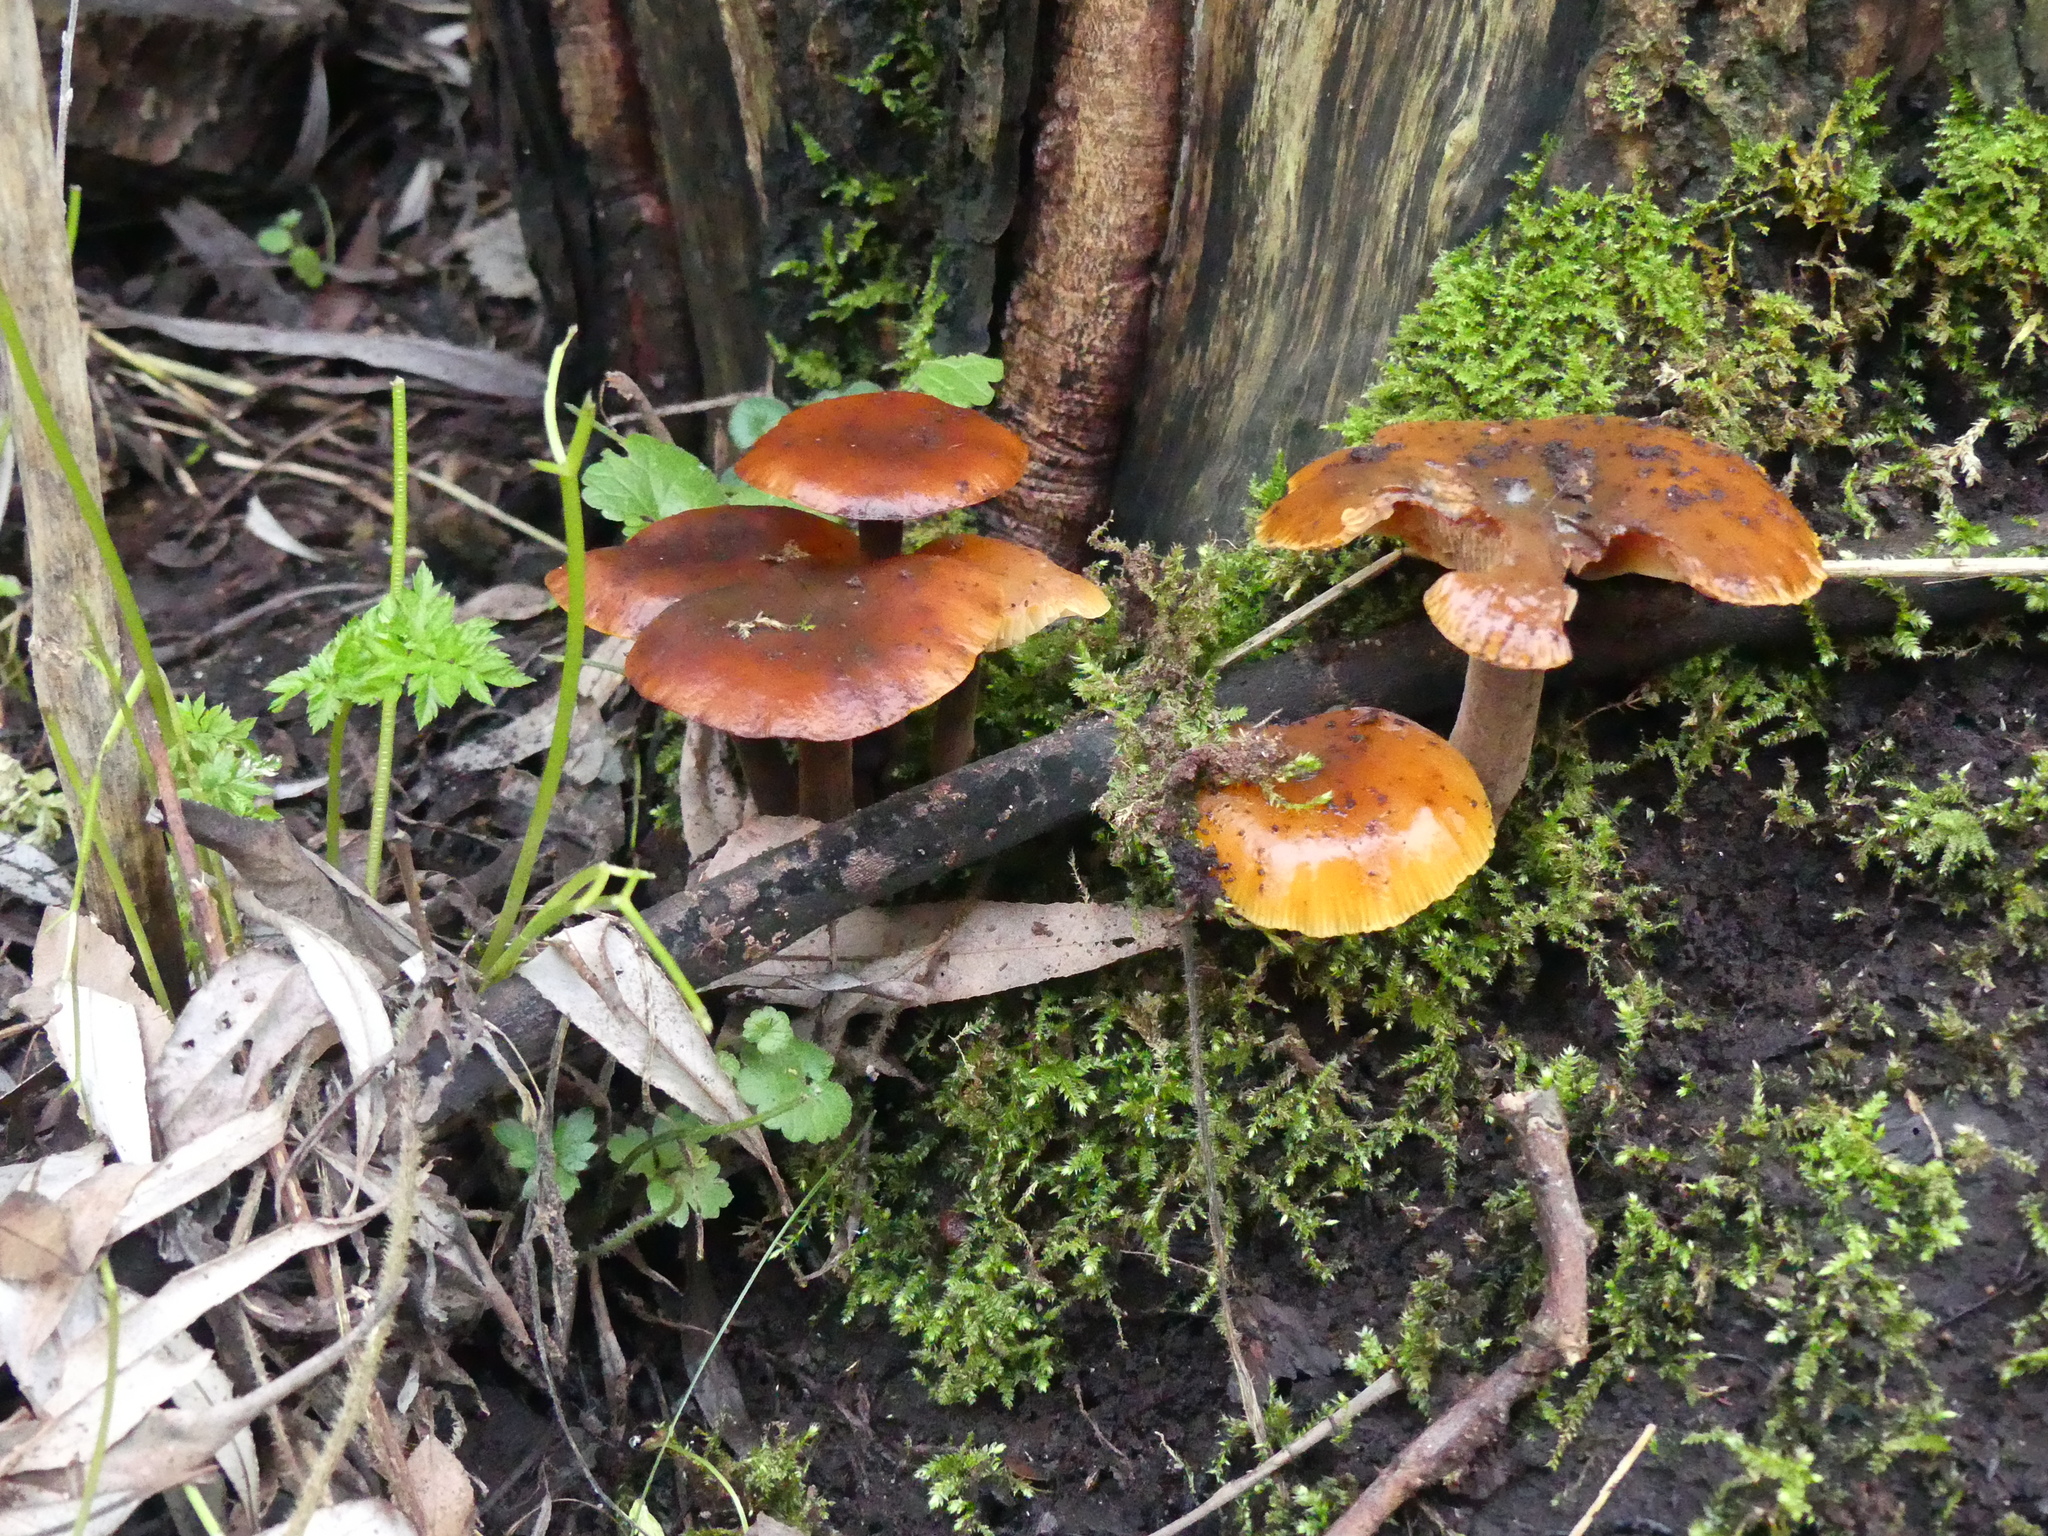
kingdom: Fungi
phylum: Basidiomycota
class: Agaricomycetes
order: Agaricales
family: Physalacriaceae
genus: Flammulina
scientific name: Flammulina
